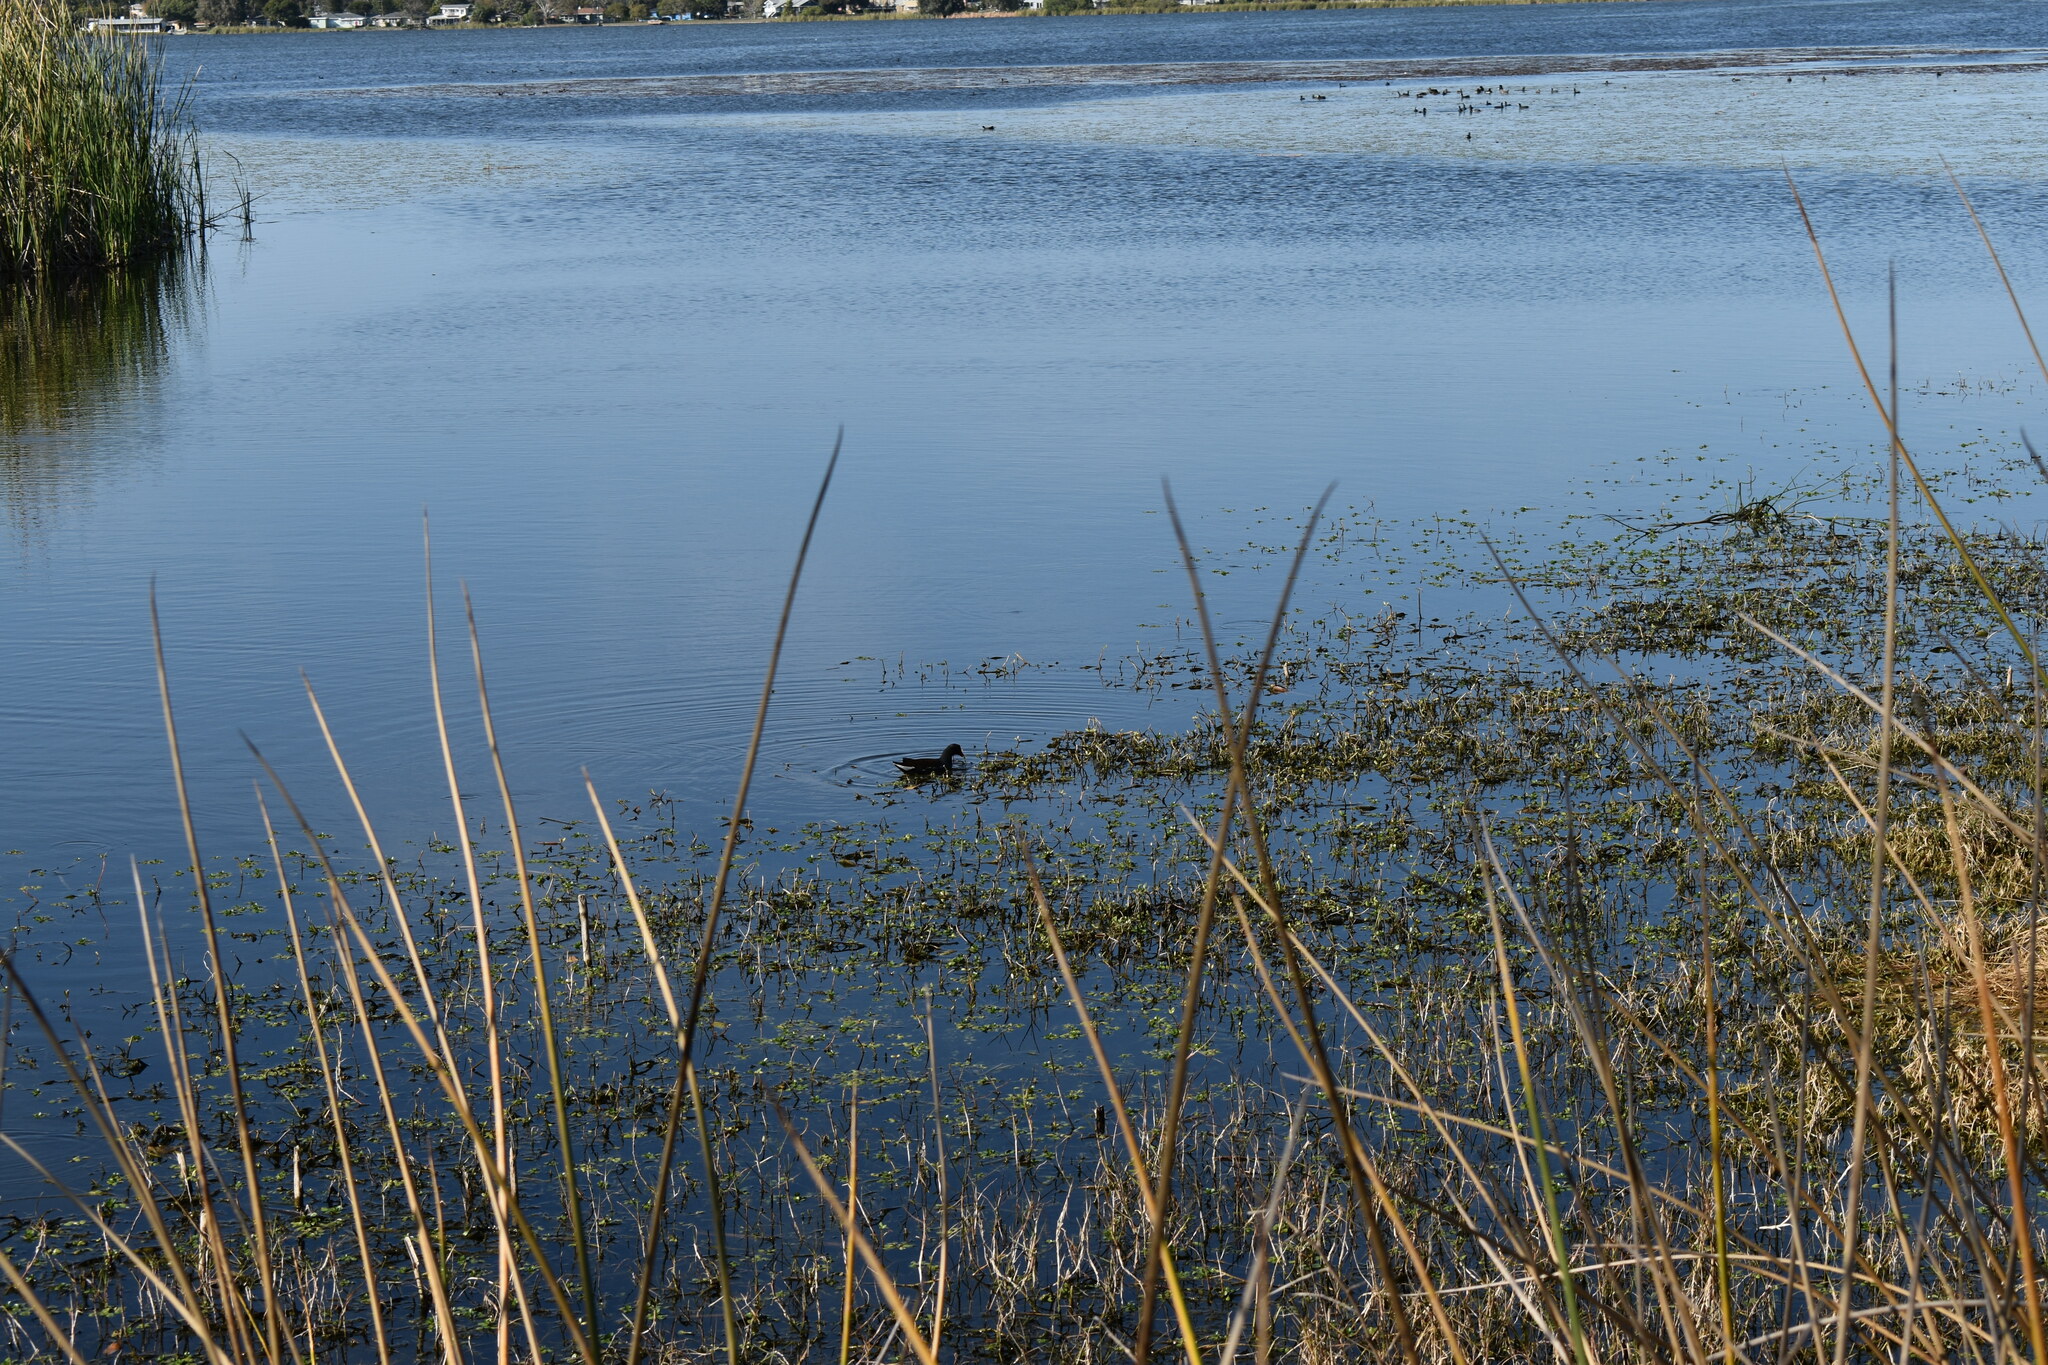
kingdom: Animalia
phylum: Chordata
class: Aves
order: Gruiformes
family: Rallidae
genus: Gallinula
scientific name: Gallinula chloropus
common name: Common moorhen
